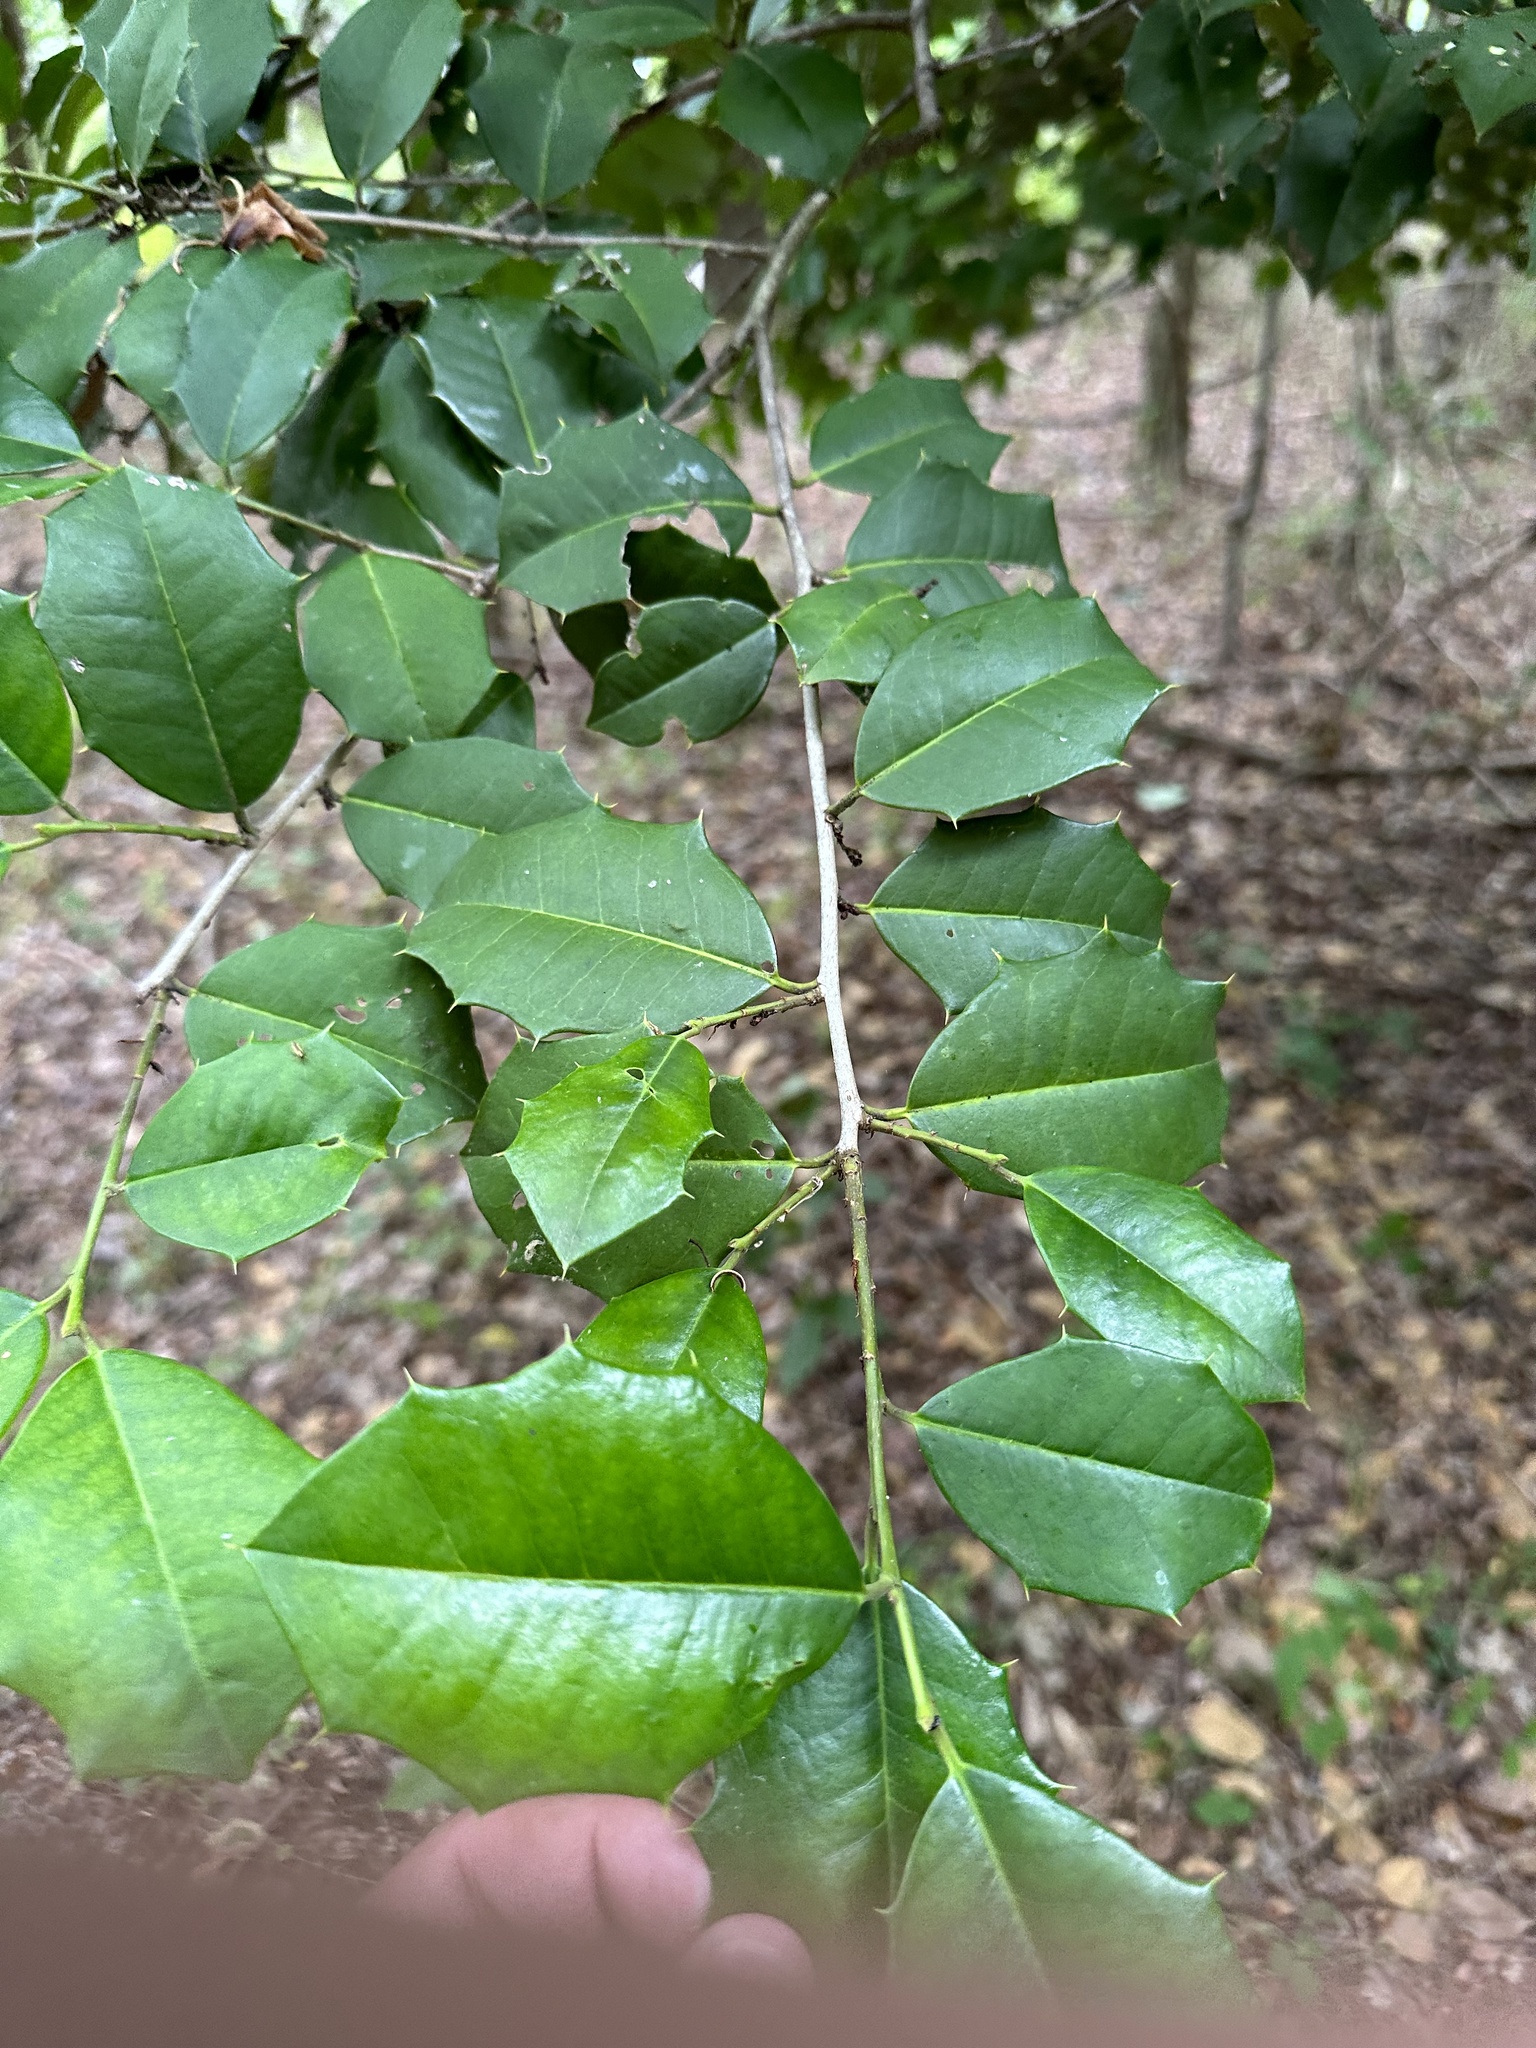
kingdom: Plantae
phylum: Tracheophyta
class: Magnoliopsida
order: Aquifoliales
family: Aquifoliaceae
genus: Ilex
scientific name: Ilex opaca
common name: American holly
